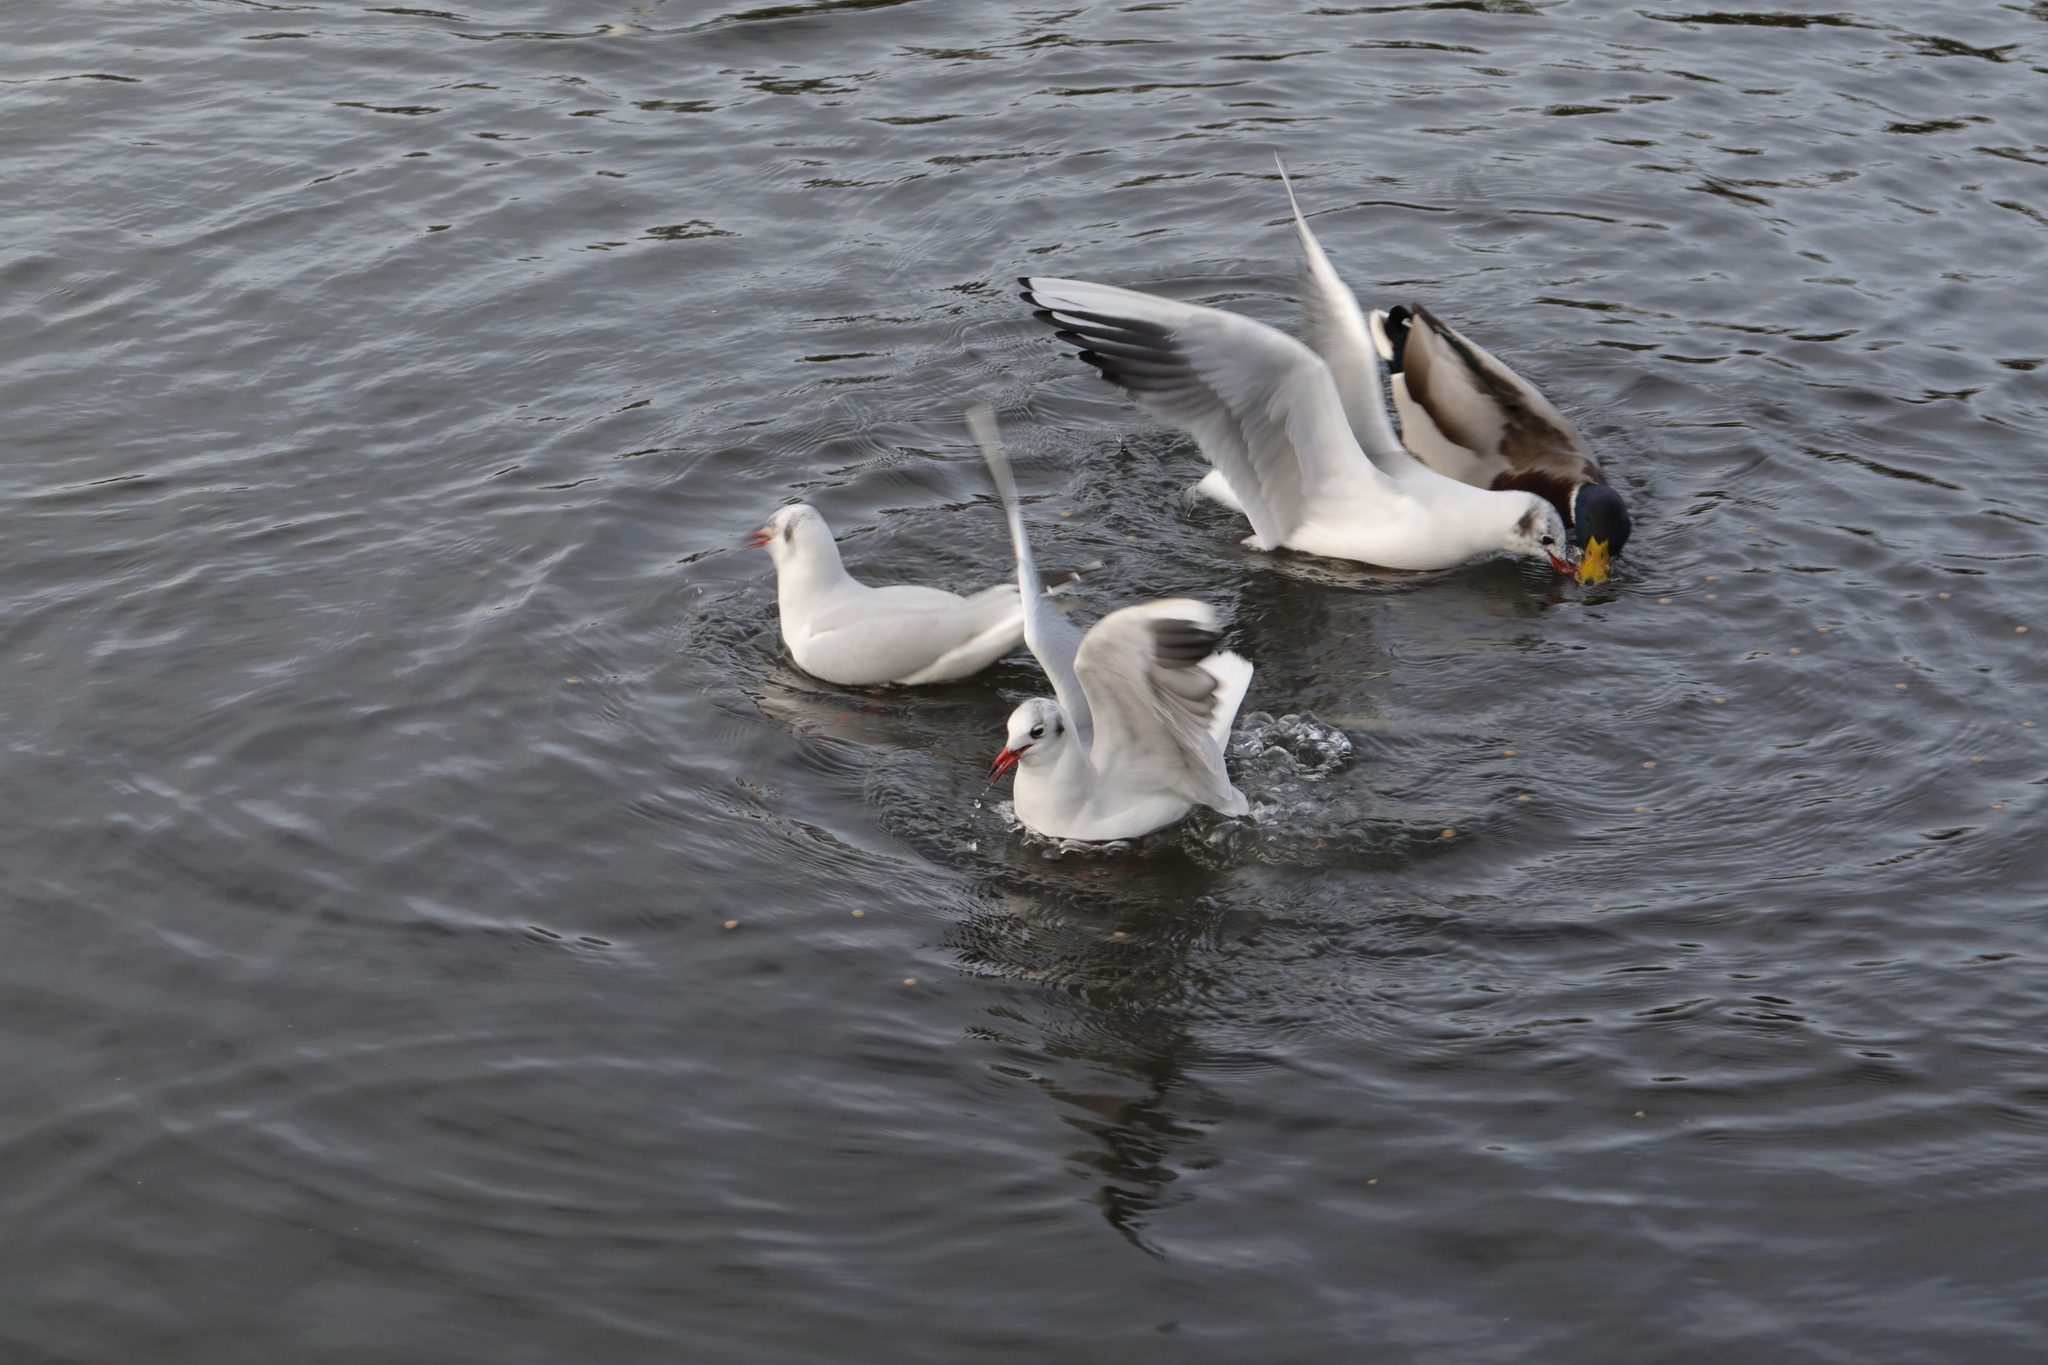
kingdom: Animalia
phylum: Chordata
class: Aves
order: Charadriiformes
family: Laridae
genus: Chroicocephalus
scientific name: Chroicocephalus ridibundus
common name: Black-headed gull
